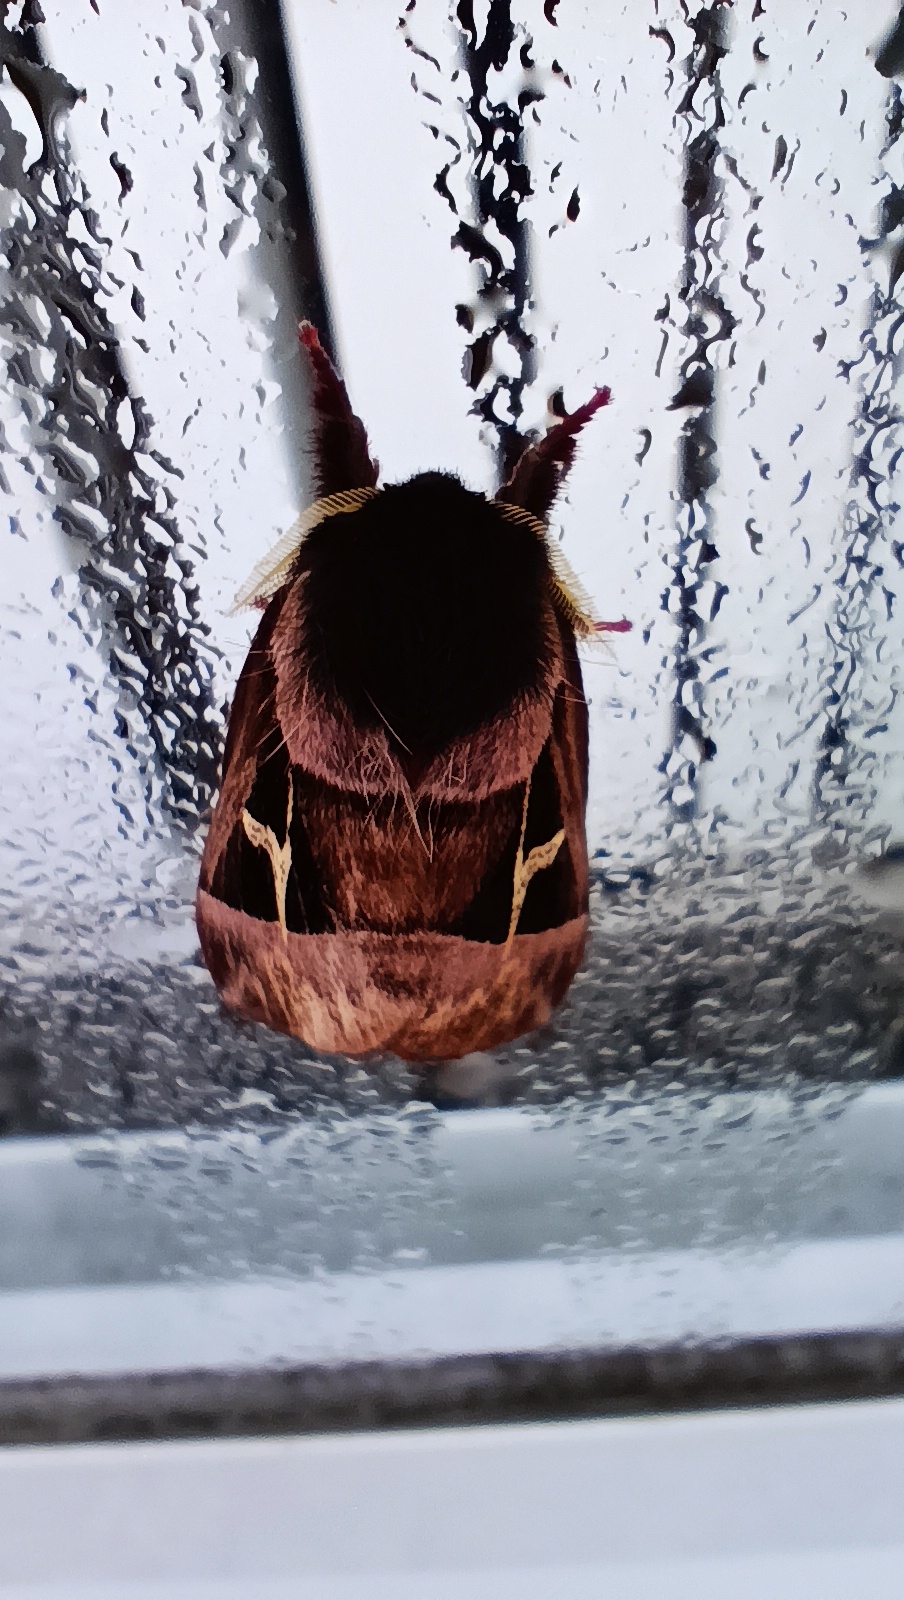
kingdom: Animalia
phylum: Arthropoda
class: Insecta
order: Lepidoptera
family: Saturniidae
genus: Dirphiopsis
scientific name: Dirphiopsis delta
